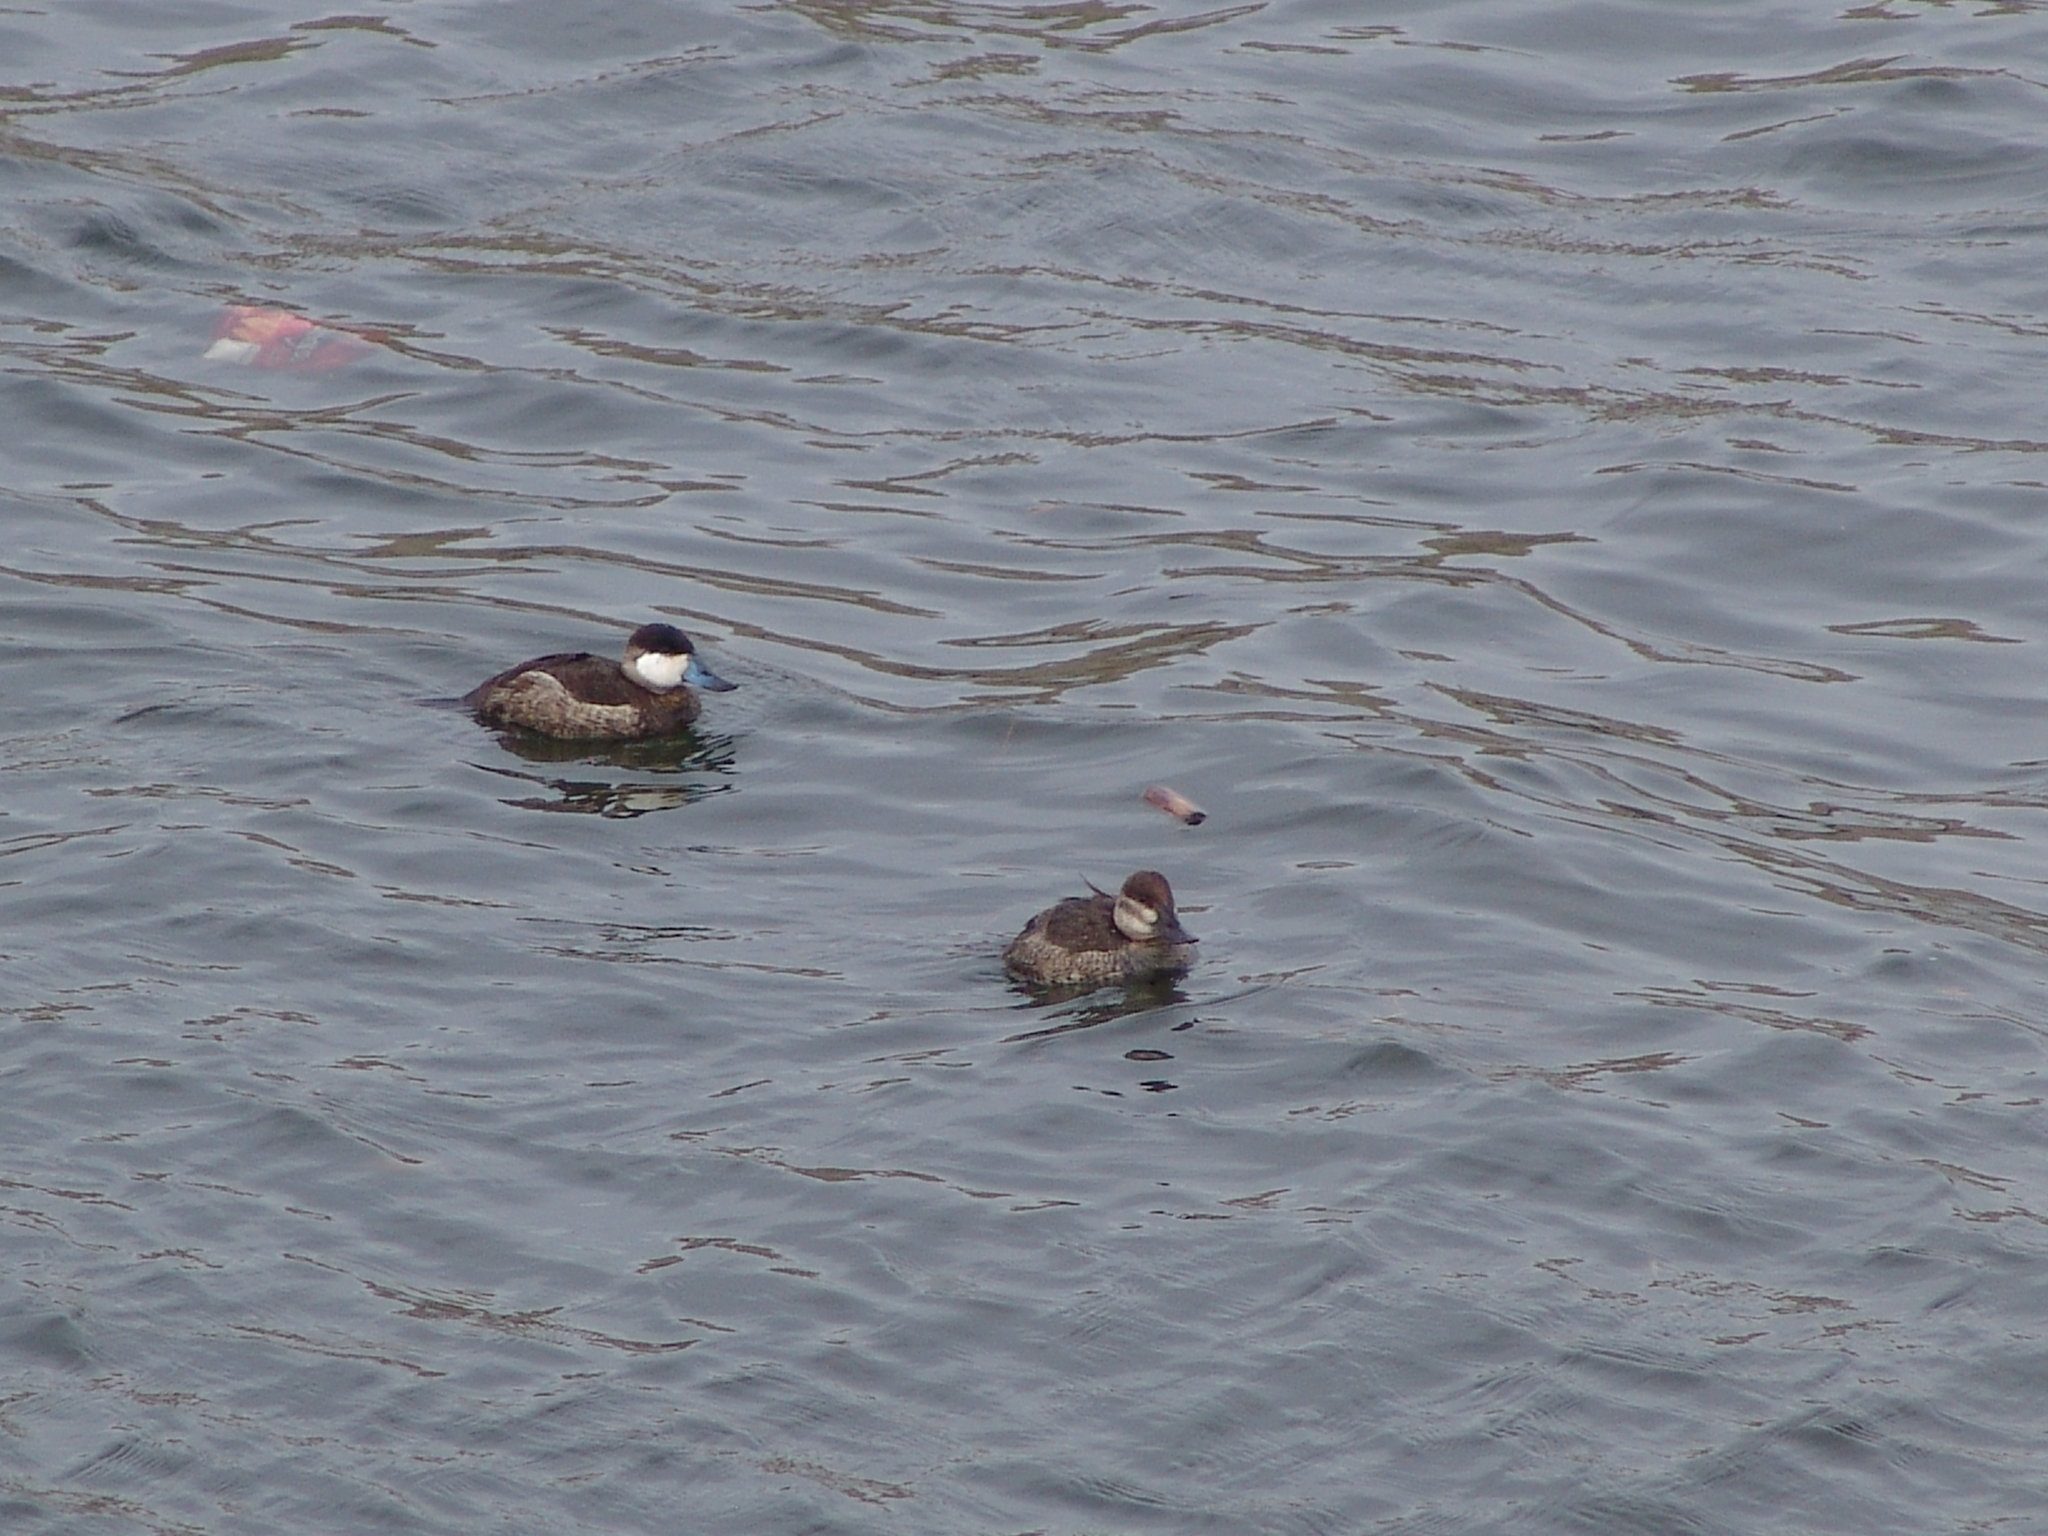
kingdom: Animalia
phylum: Chordata
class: Aves
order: Anseriformes
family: Anatidae
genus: Oxyura
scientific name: Oxyura jamaicensis
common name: Ruddy duck
